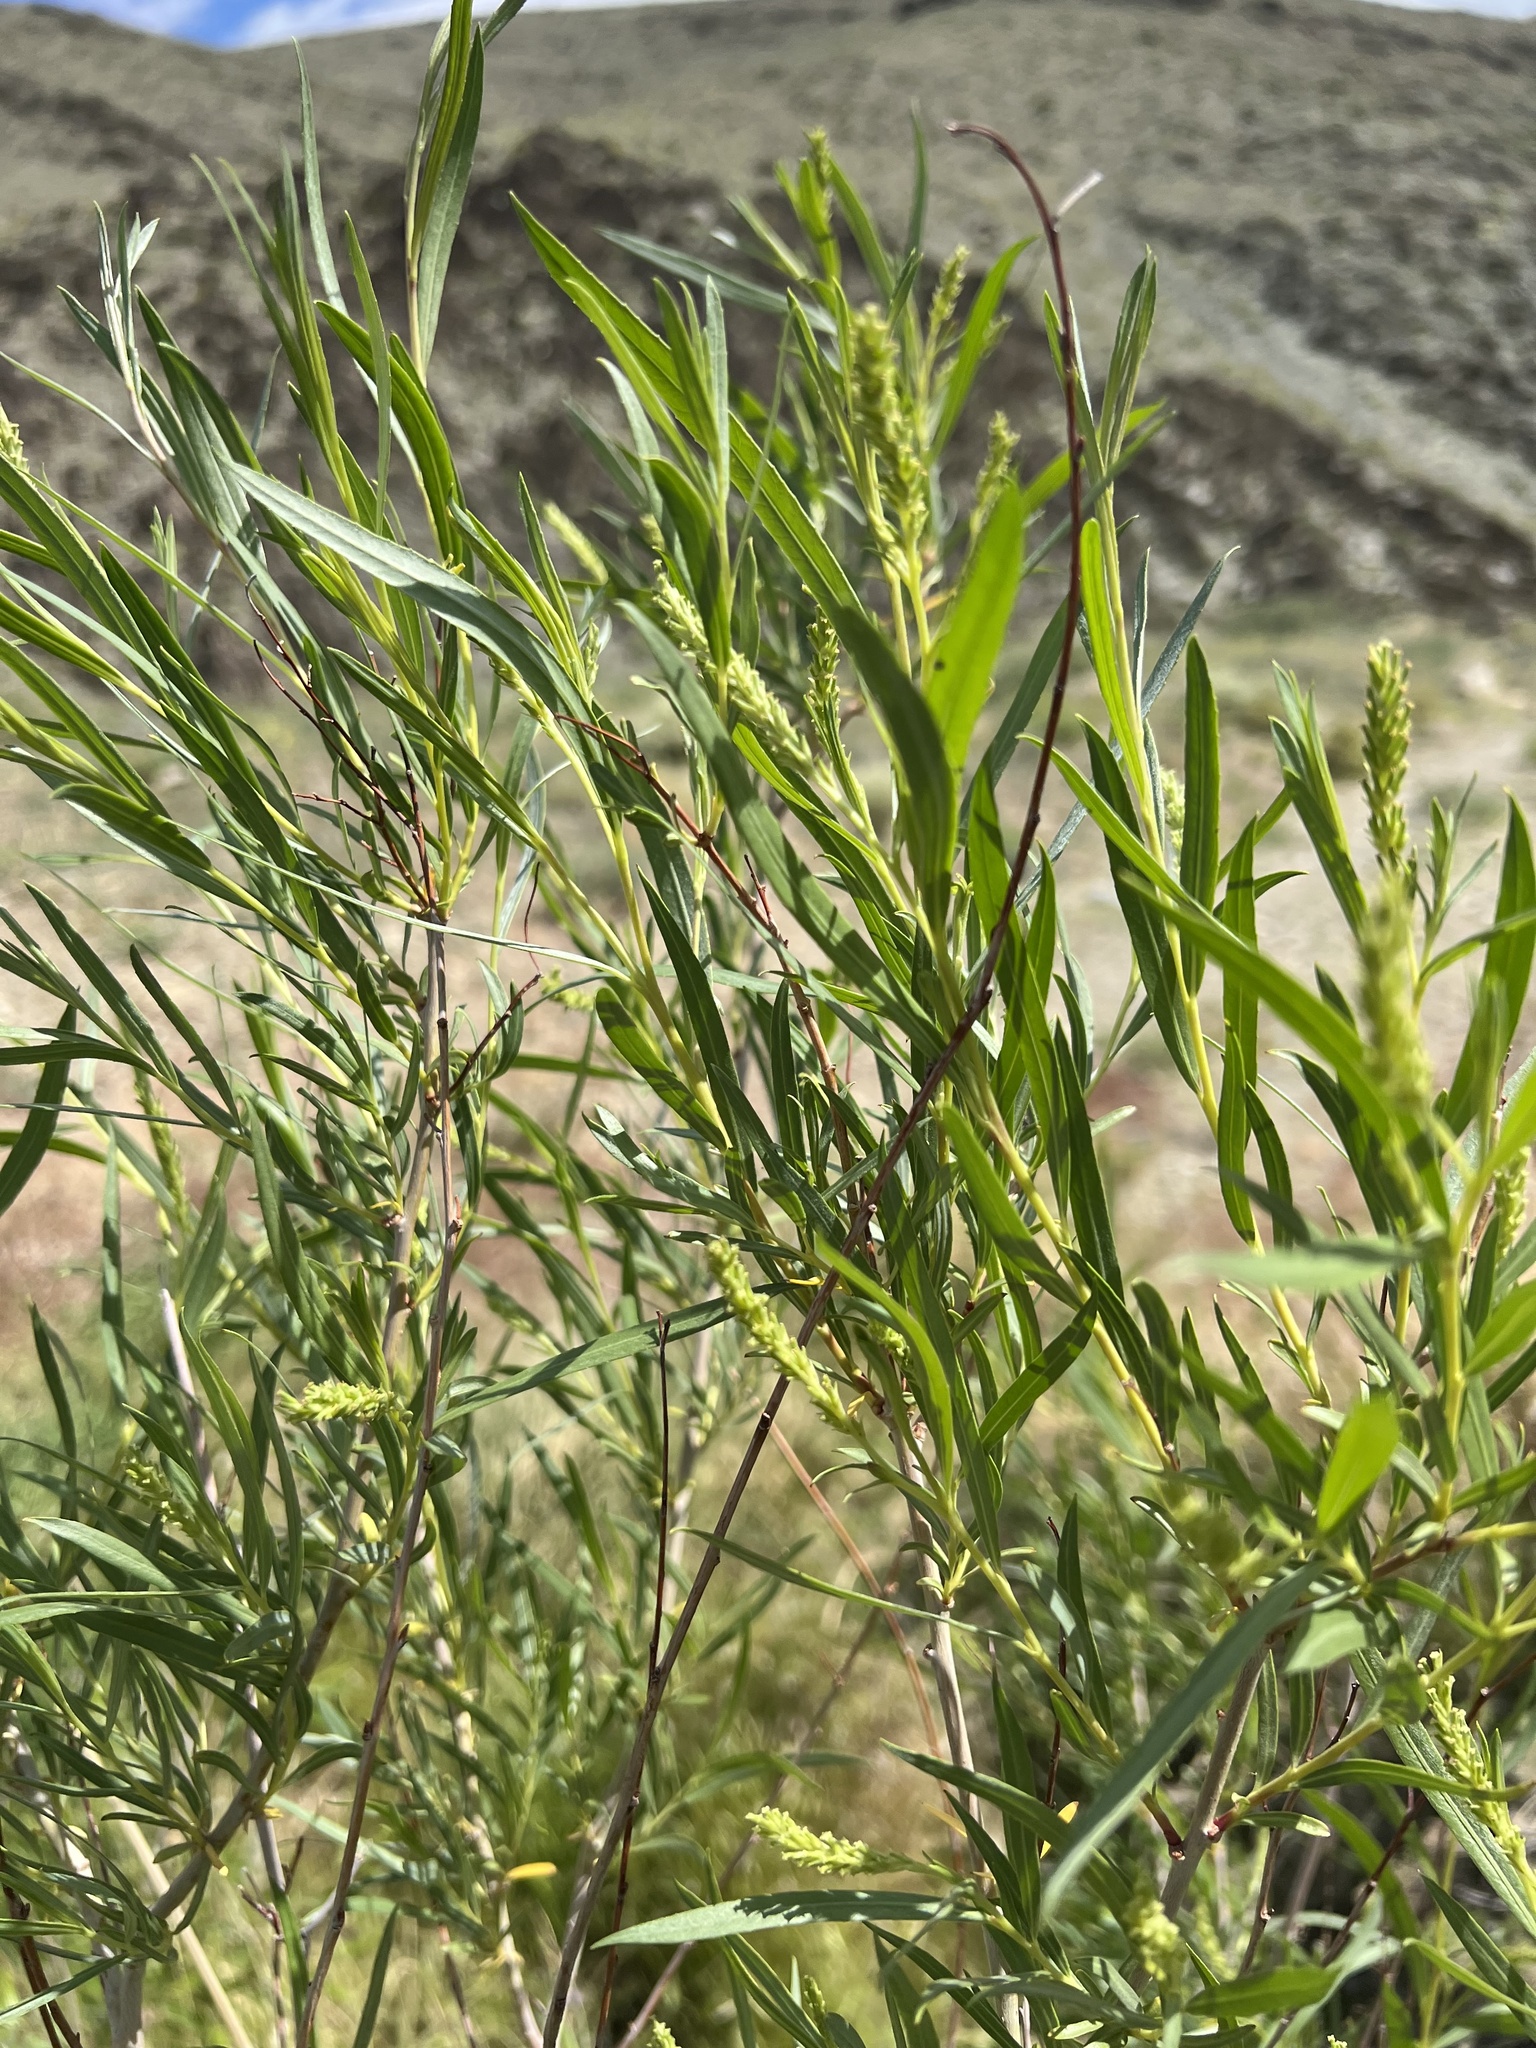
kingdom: Plantae
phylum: Tracheophyta
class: Magnoliopsida
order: Malpighiales
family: Salicaceae
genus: Salix
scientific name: Salix exigua
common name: Coyote willow
